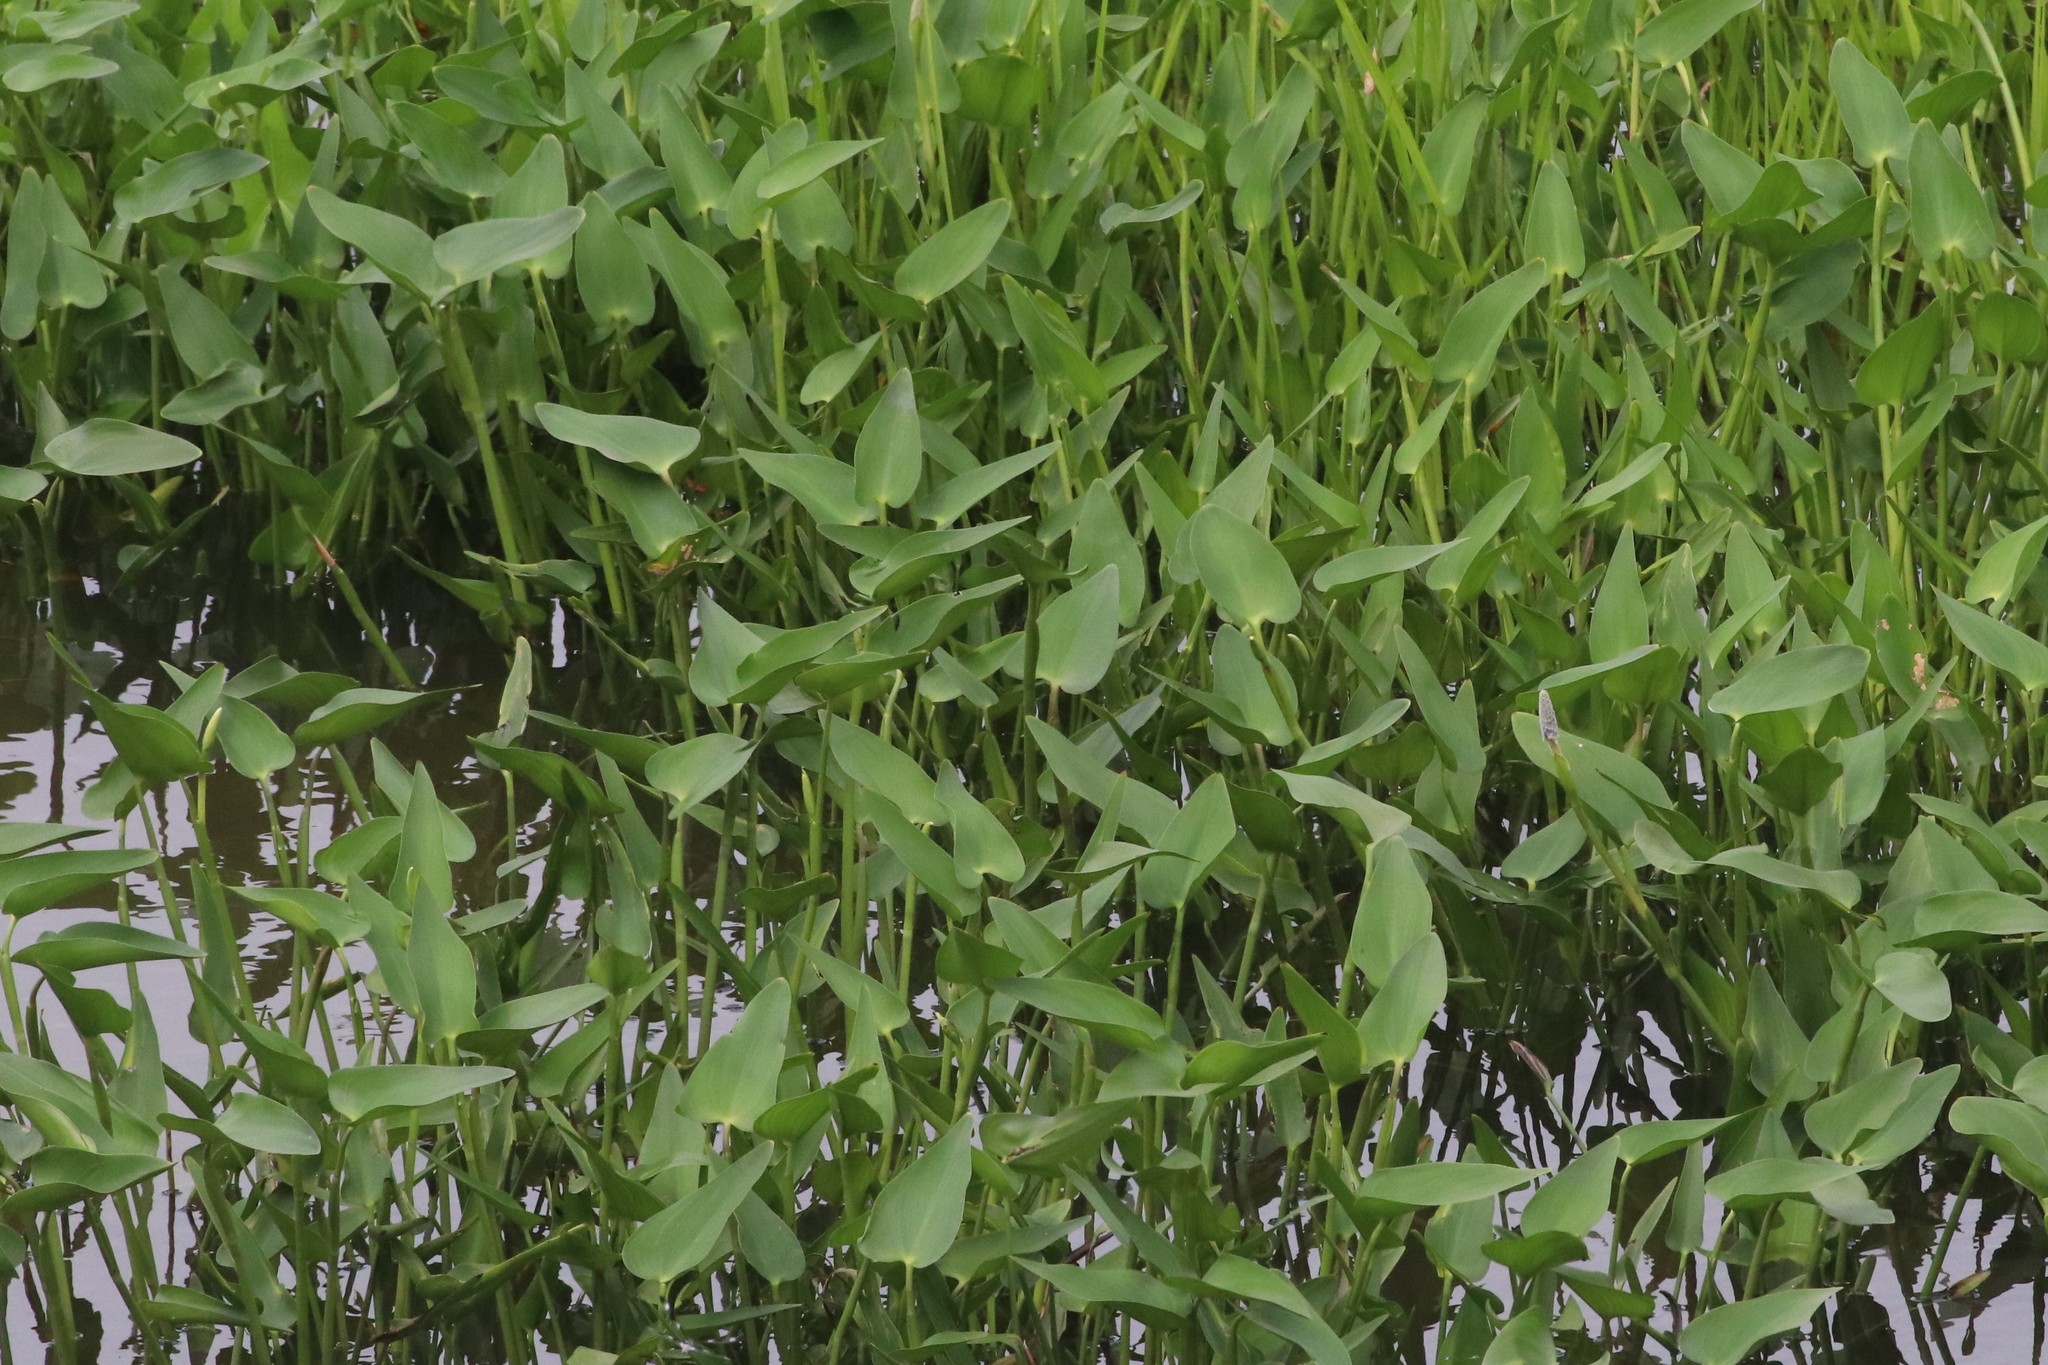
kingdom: Plantae
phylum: Tracheophyta
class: Liliopsida
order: Commelinales
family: Pontederiaceae
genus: Pontederia
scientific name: Pontederia cordata
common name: Pickerelweed
